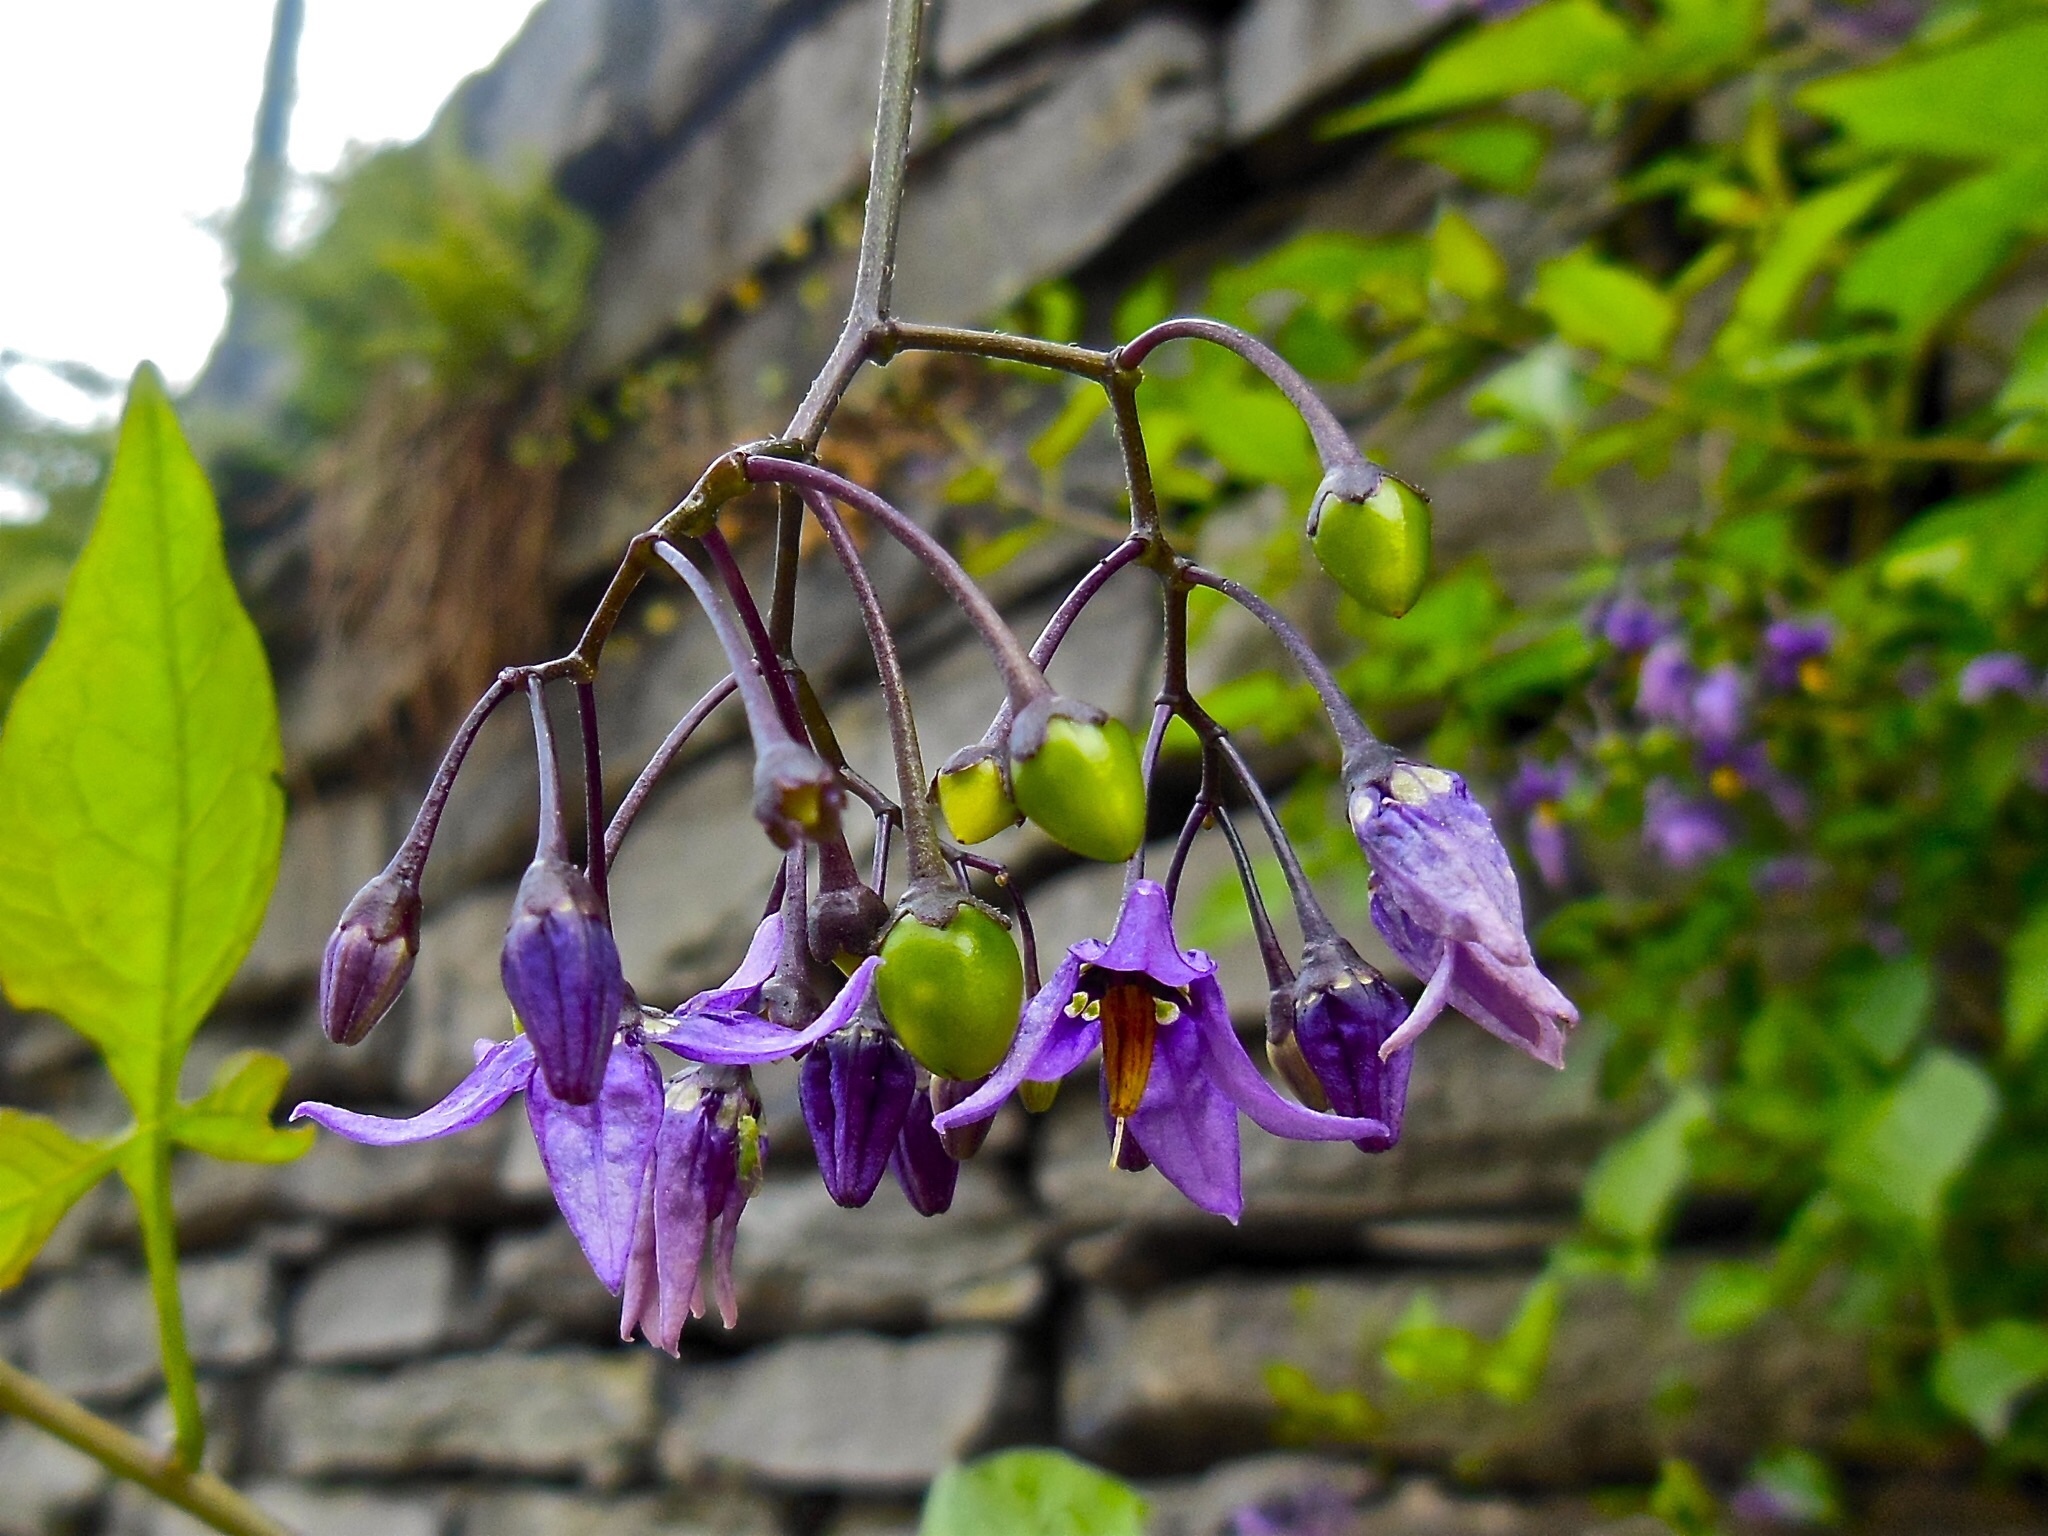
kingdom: Plantae
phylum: Tracheophyta
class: Magnoliopsida
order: Solanales
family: Solanaceae
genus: Solanum
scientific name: Solanum dulcamara
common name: Climbing nightshade
